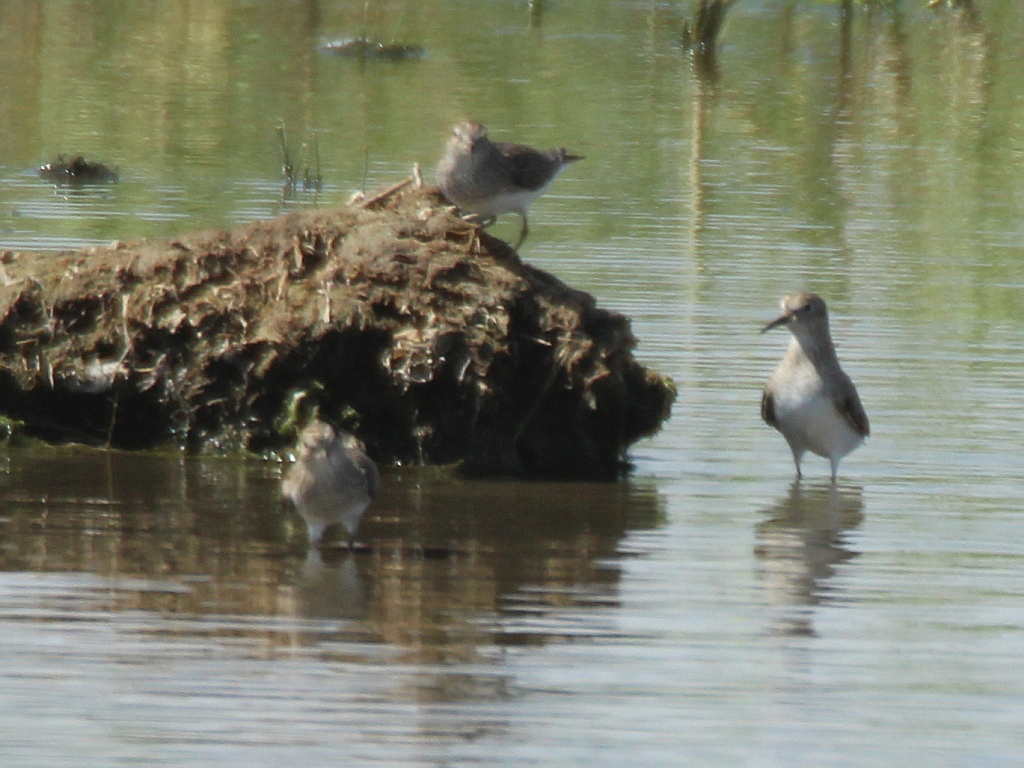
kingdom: Animalia
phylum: Chordata
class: Aves
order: Charadriiformes
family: Scolopacidae
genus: Calidris
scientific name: Calidris temminckii
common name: Temminck's stint
